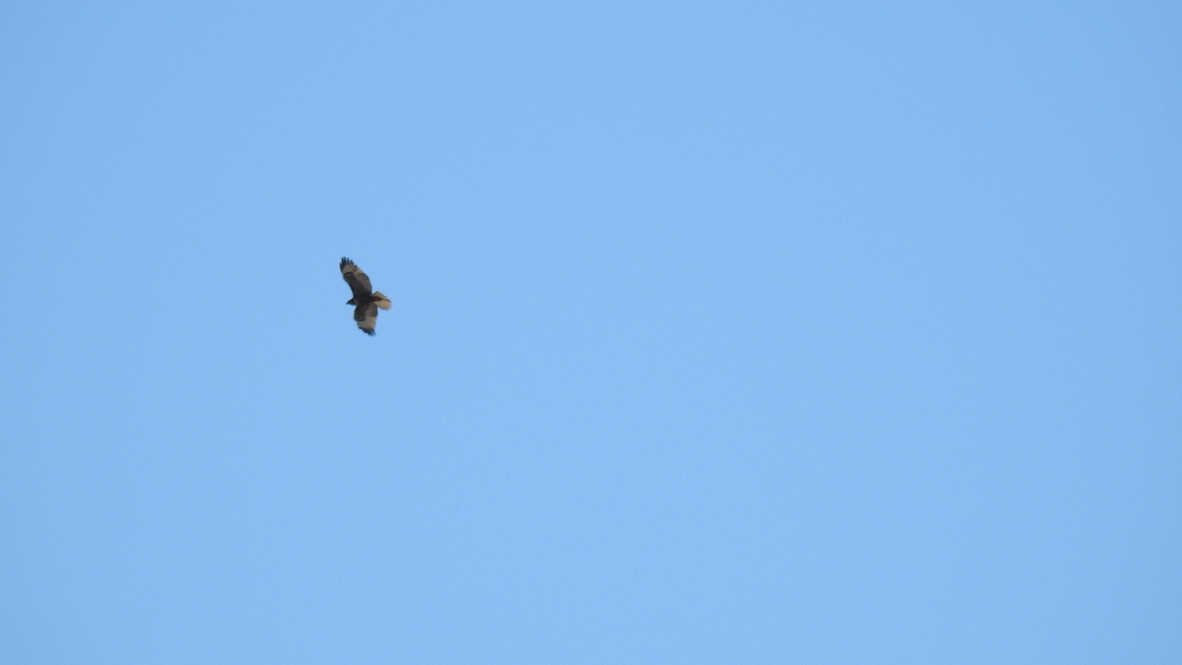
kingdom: Animalia
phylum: Chordata
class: Aves
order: Accipitriformes
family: Accipitridae
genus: Buteo
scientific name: Buteo jamaicensis
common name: Red-tailed hawk
